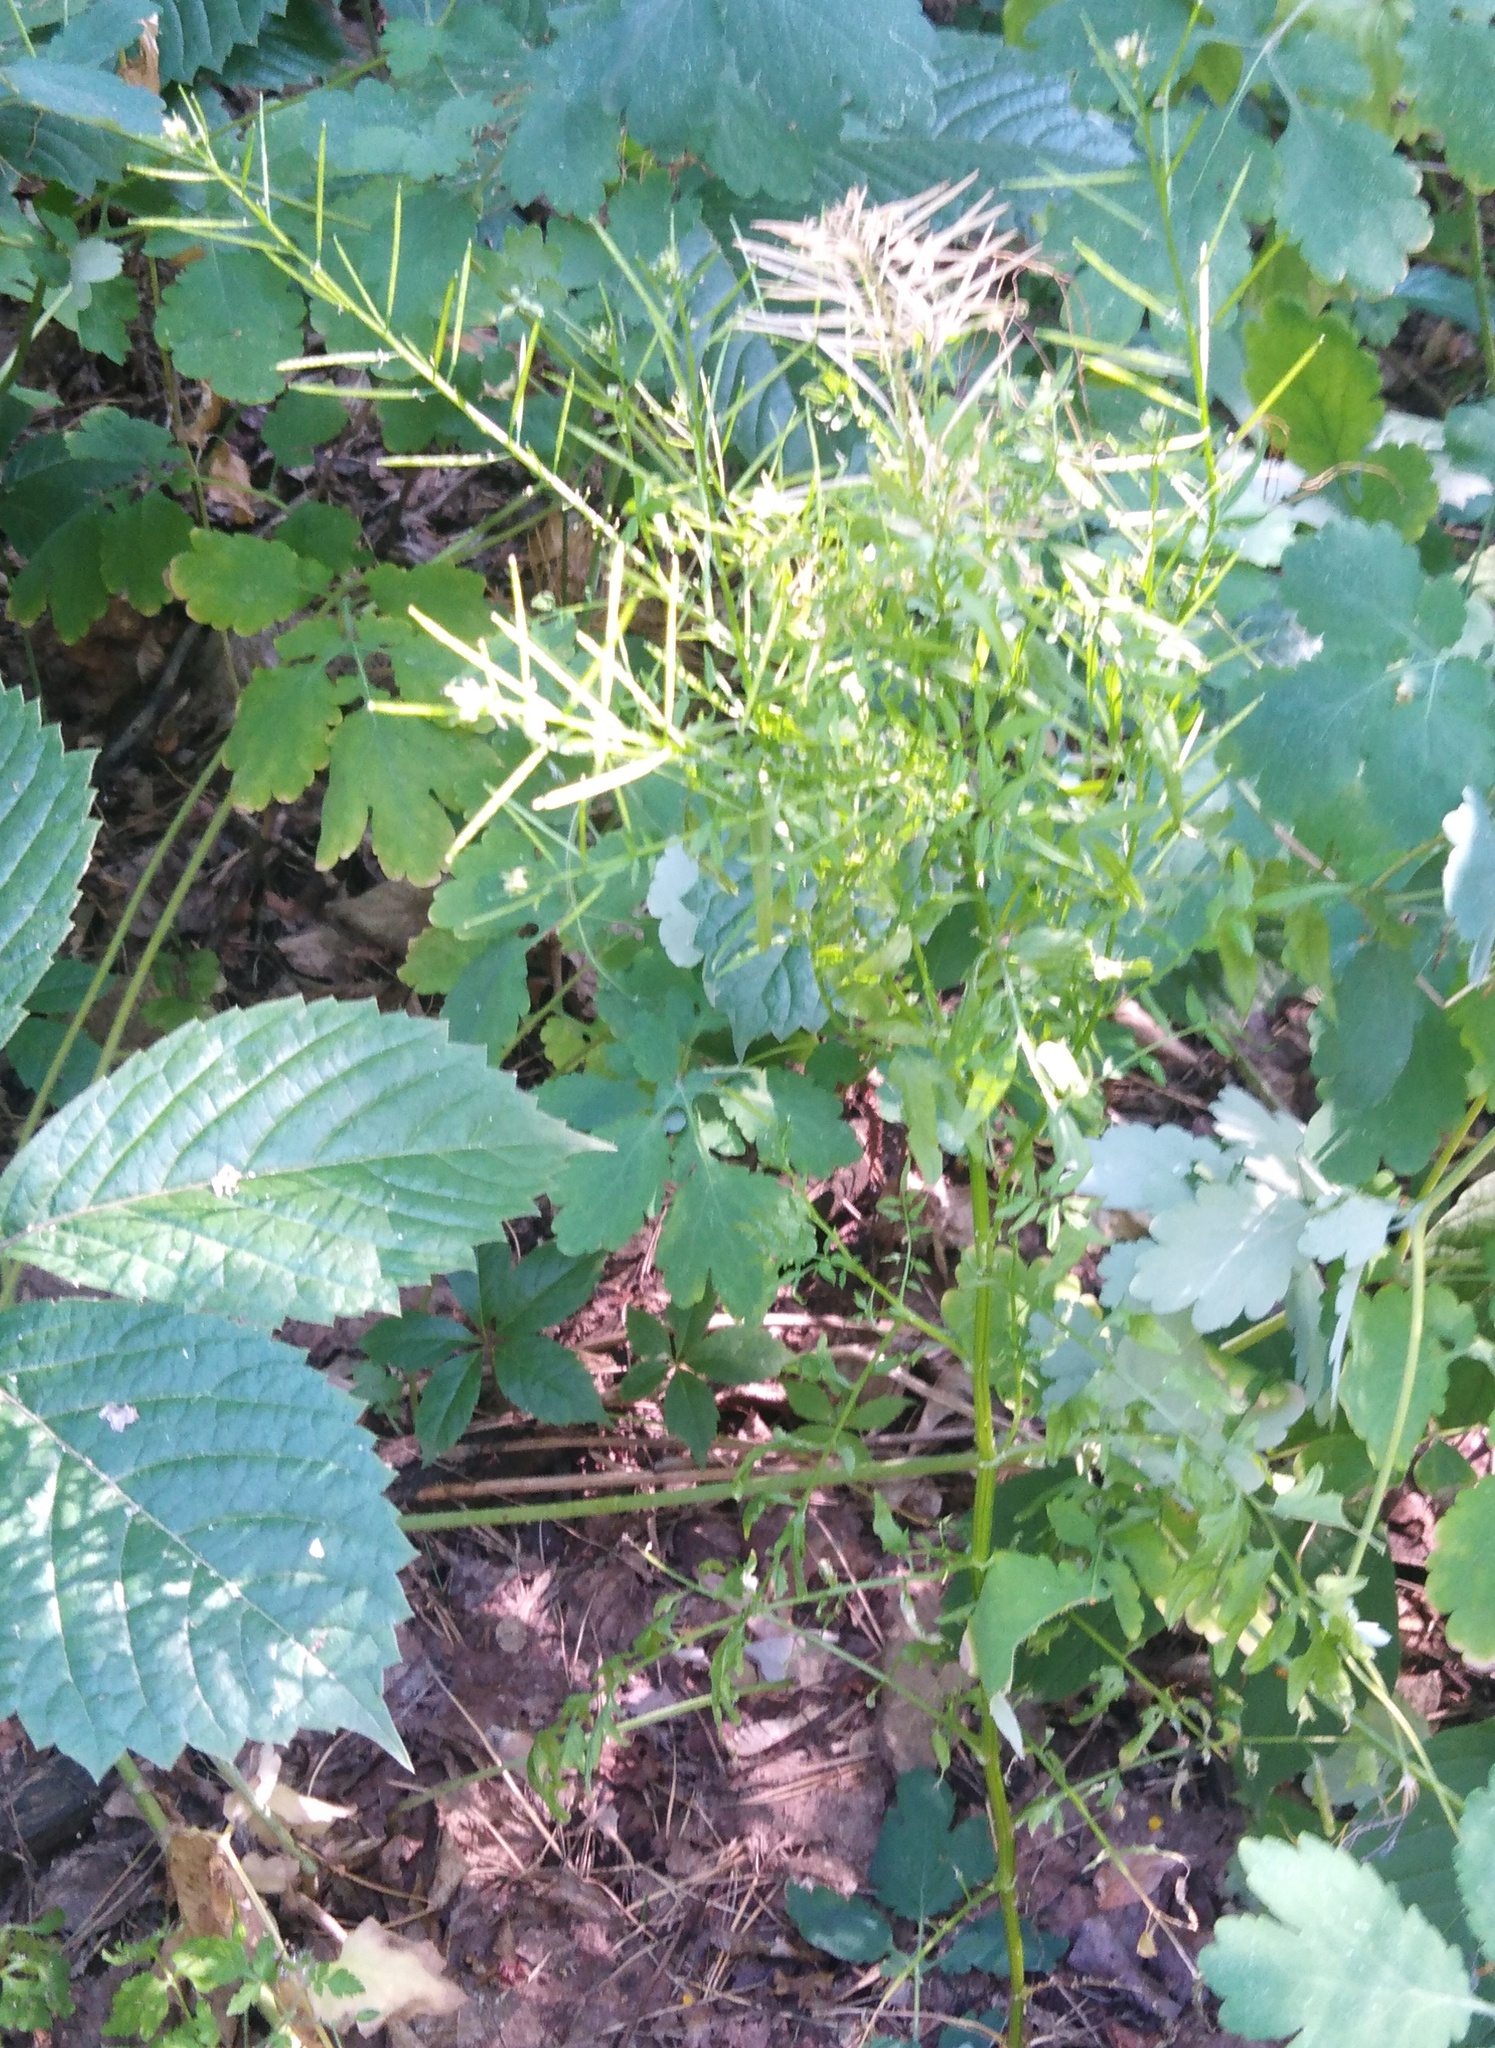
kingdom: Plantae
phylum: Tracheophyta
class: Magnoliopsida
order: Brassicales
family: Brassicaceae
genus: Cardamine
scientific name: Cardamine impatiens
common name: Narrow-leaved bitter-cress
